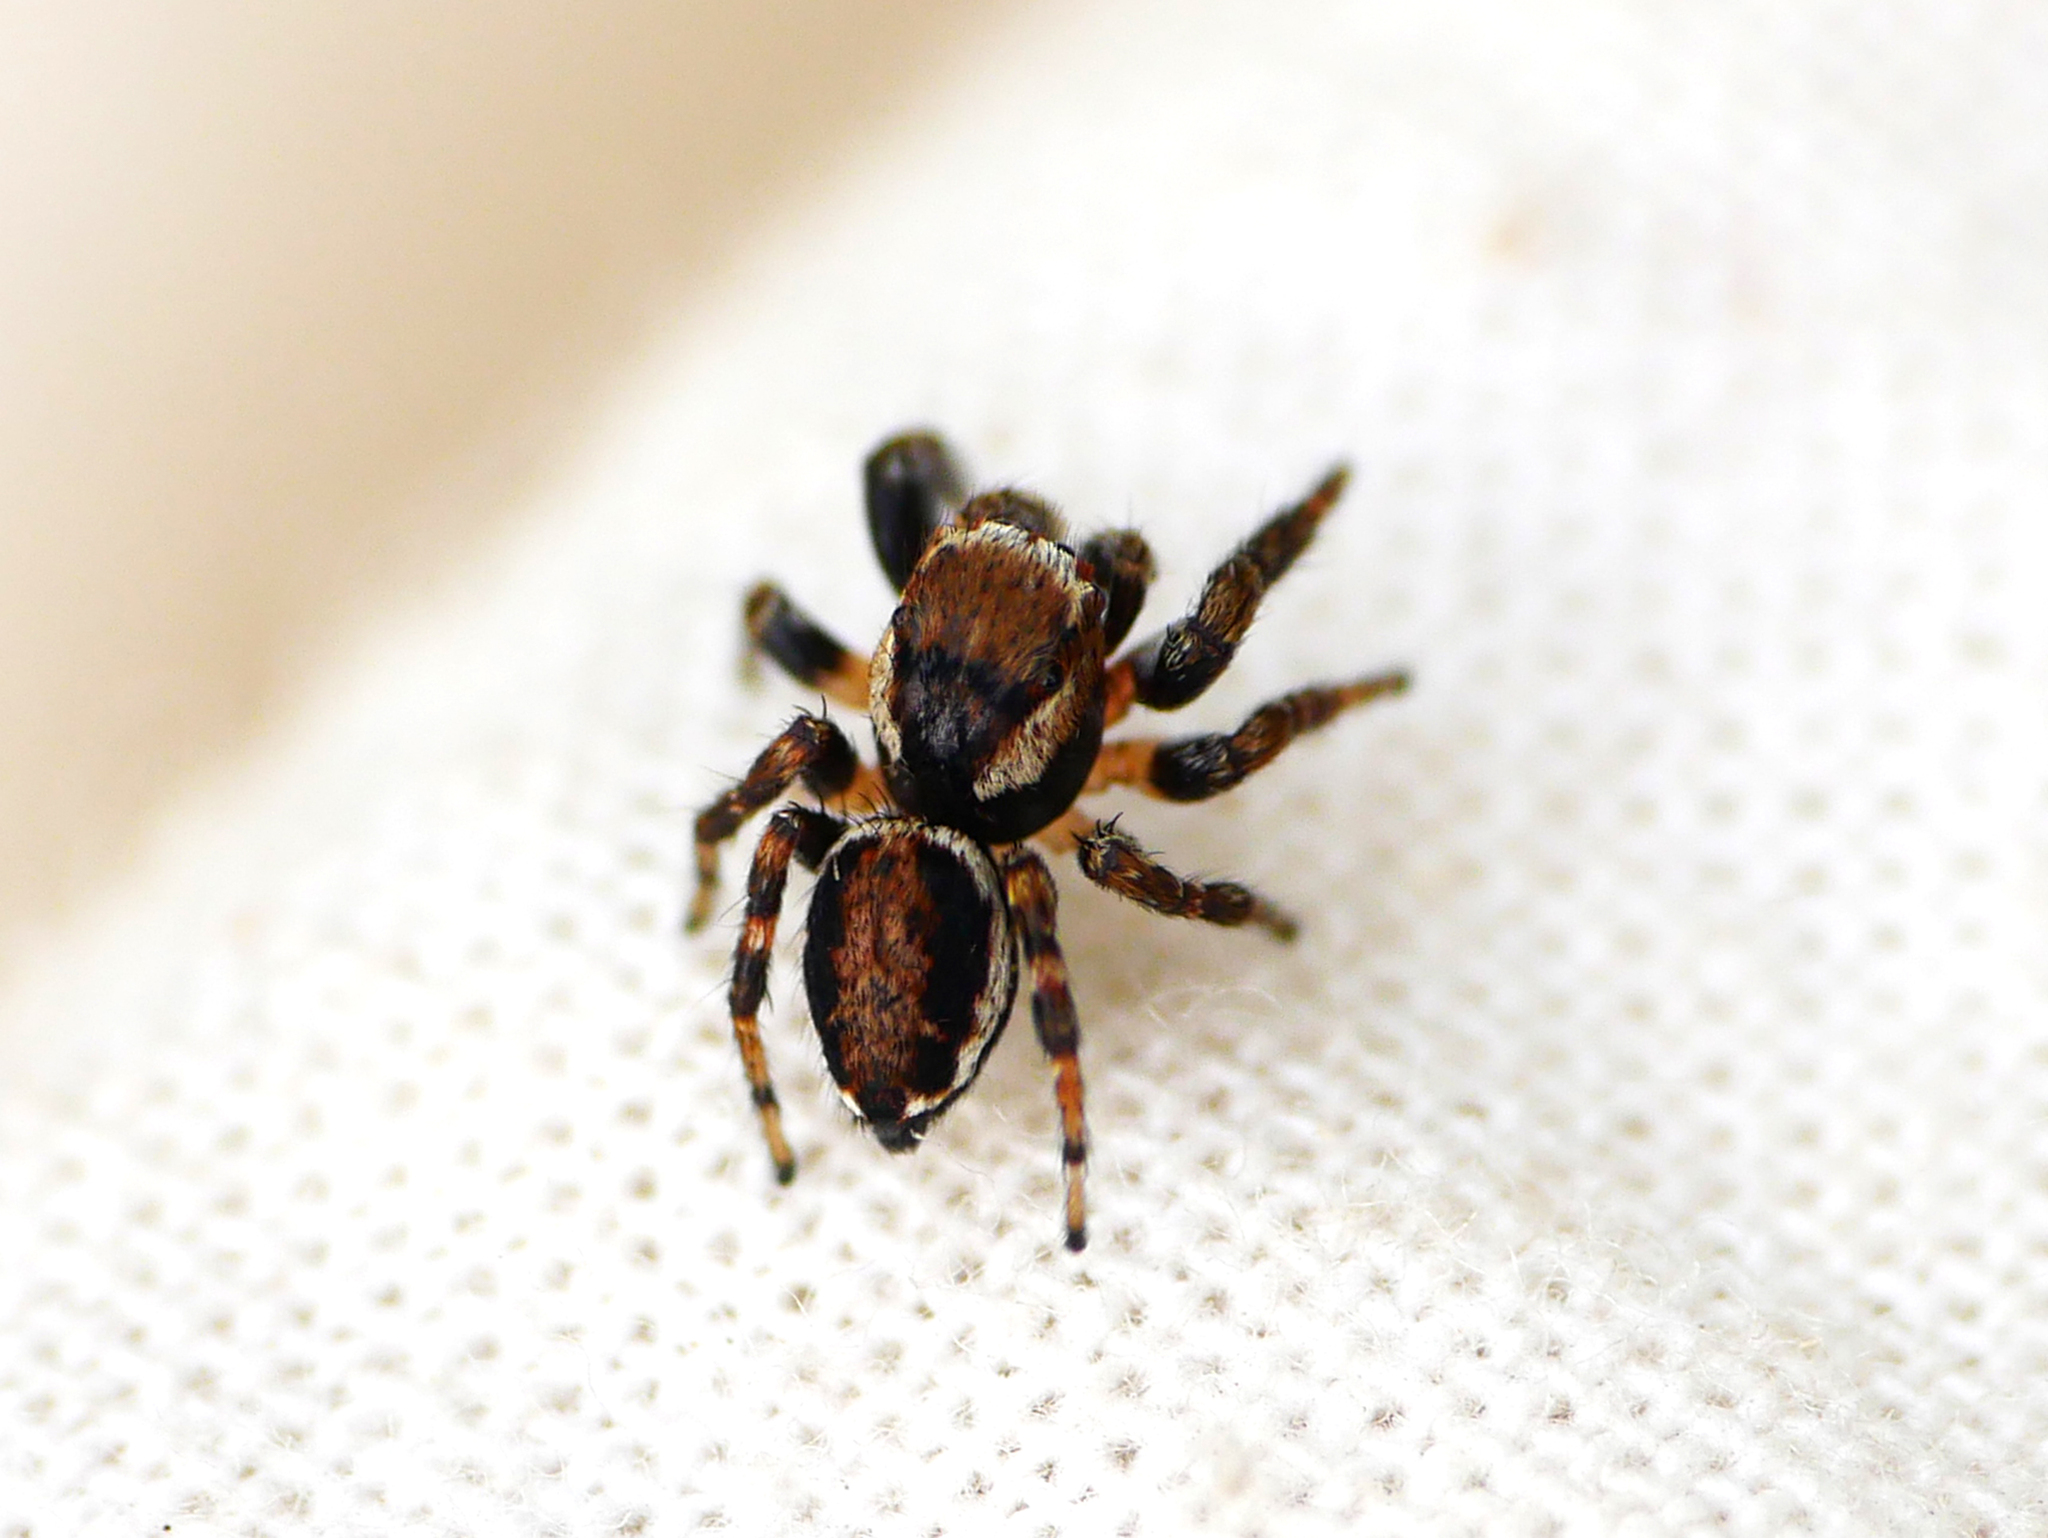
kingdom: Animalia
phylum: Arthropoda
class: Arachnida
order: Araneae
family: Salticidae
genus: Evarcha
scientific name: Evarcha falcata
